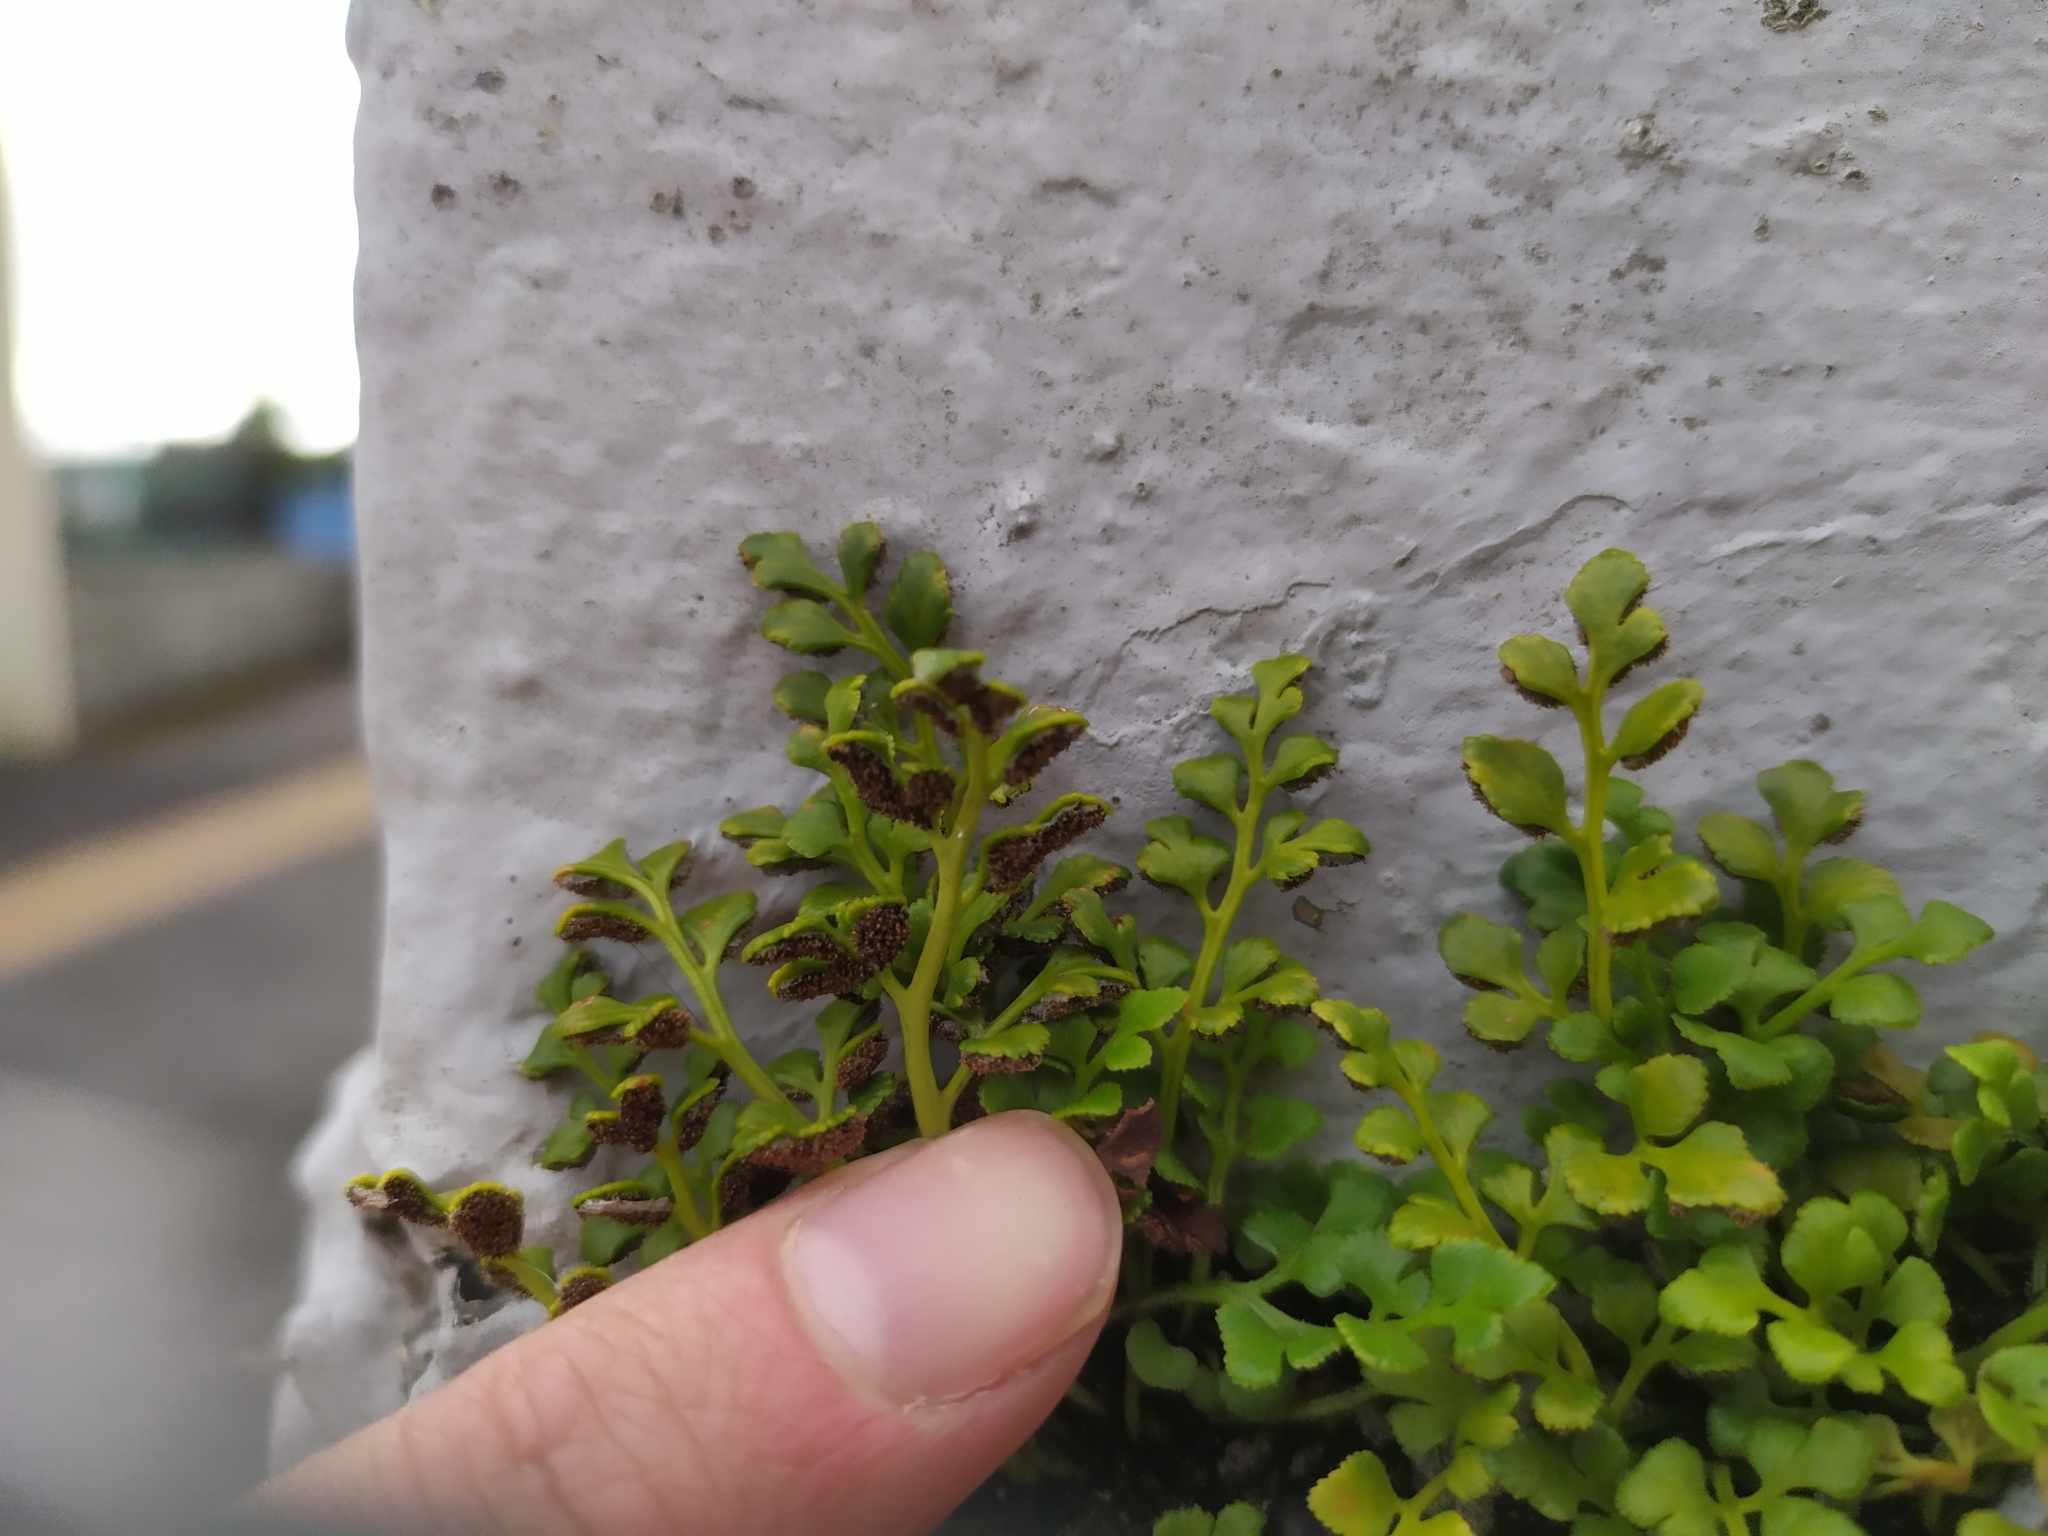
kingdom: Plantae
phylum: Tracheophyta
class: Polypodiopsida
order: Polypodiales
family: Aspleniaceae
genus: Asplenium
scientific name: Asplenium ruta-muraria
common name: Wall-rue
